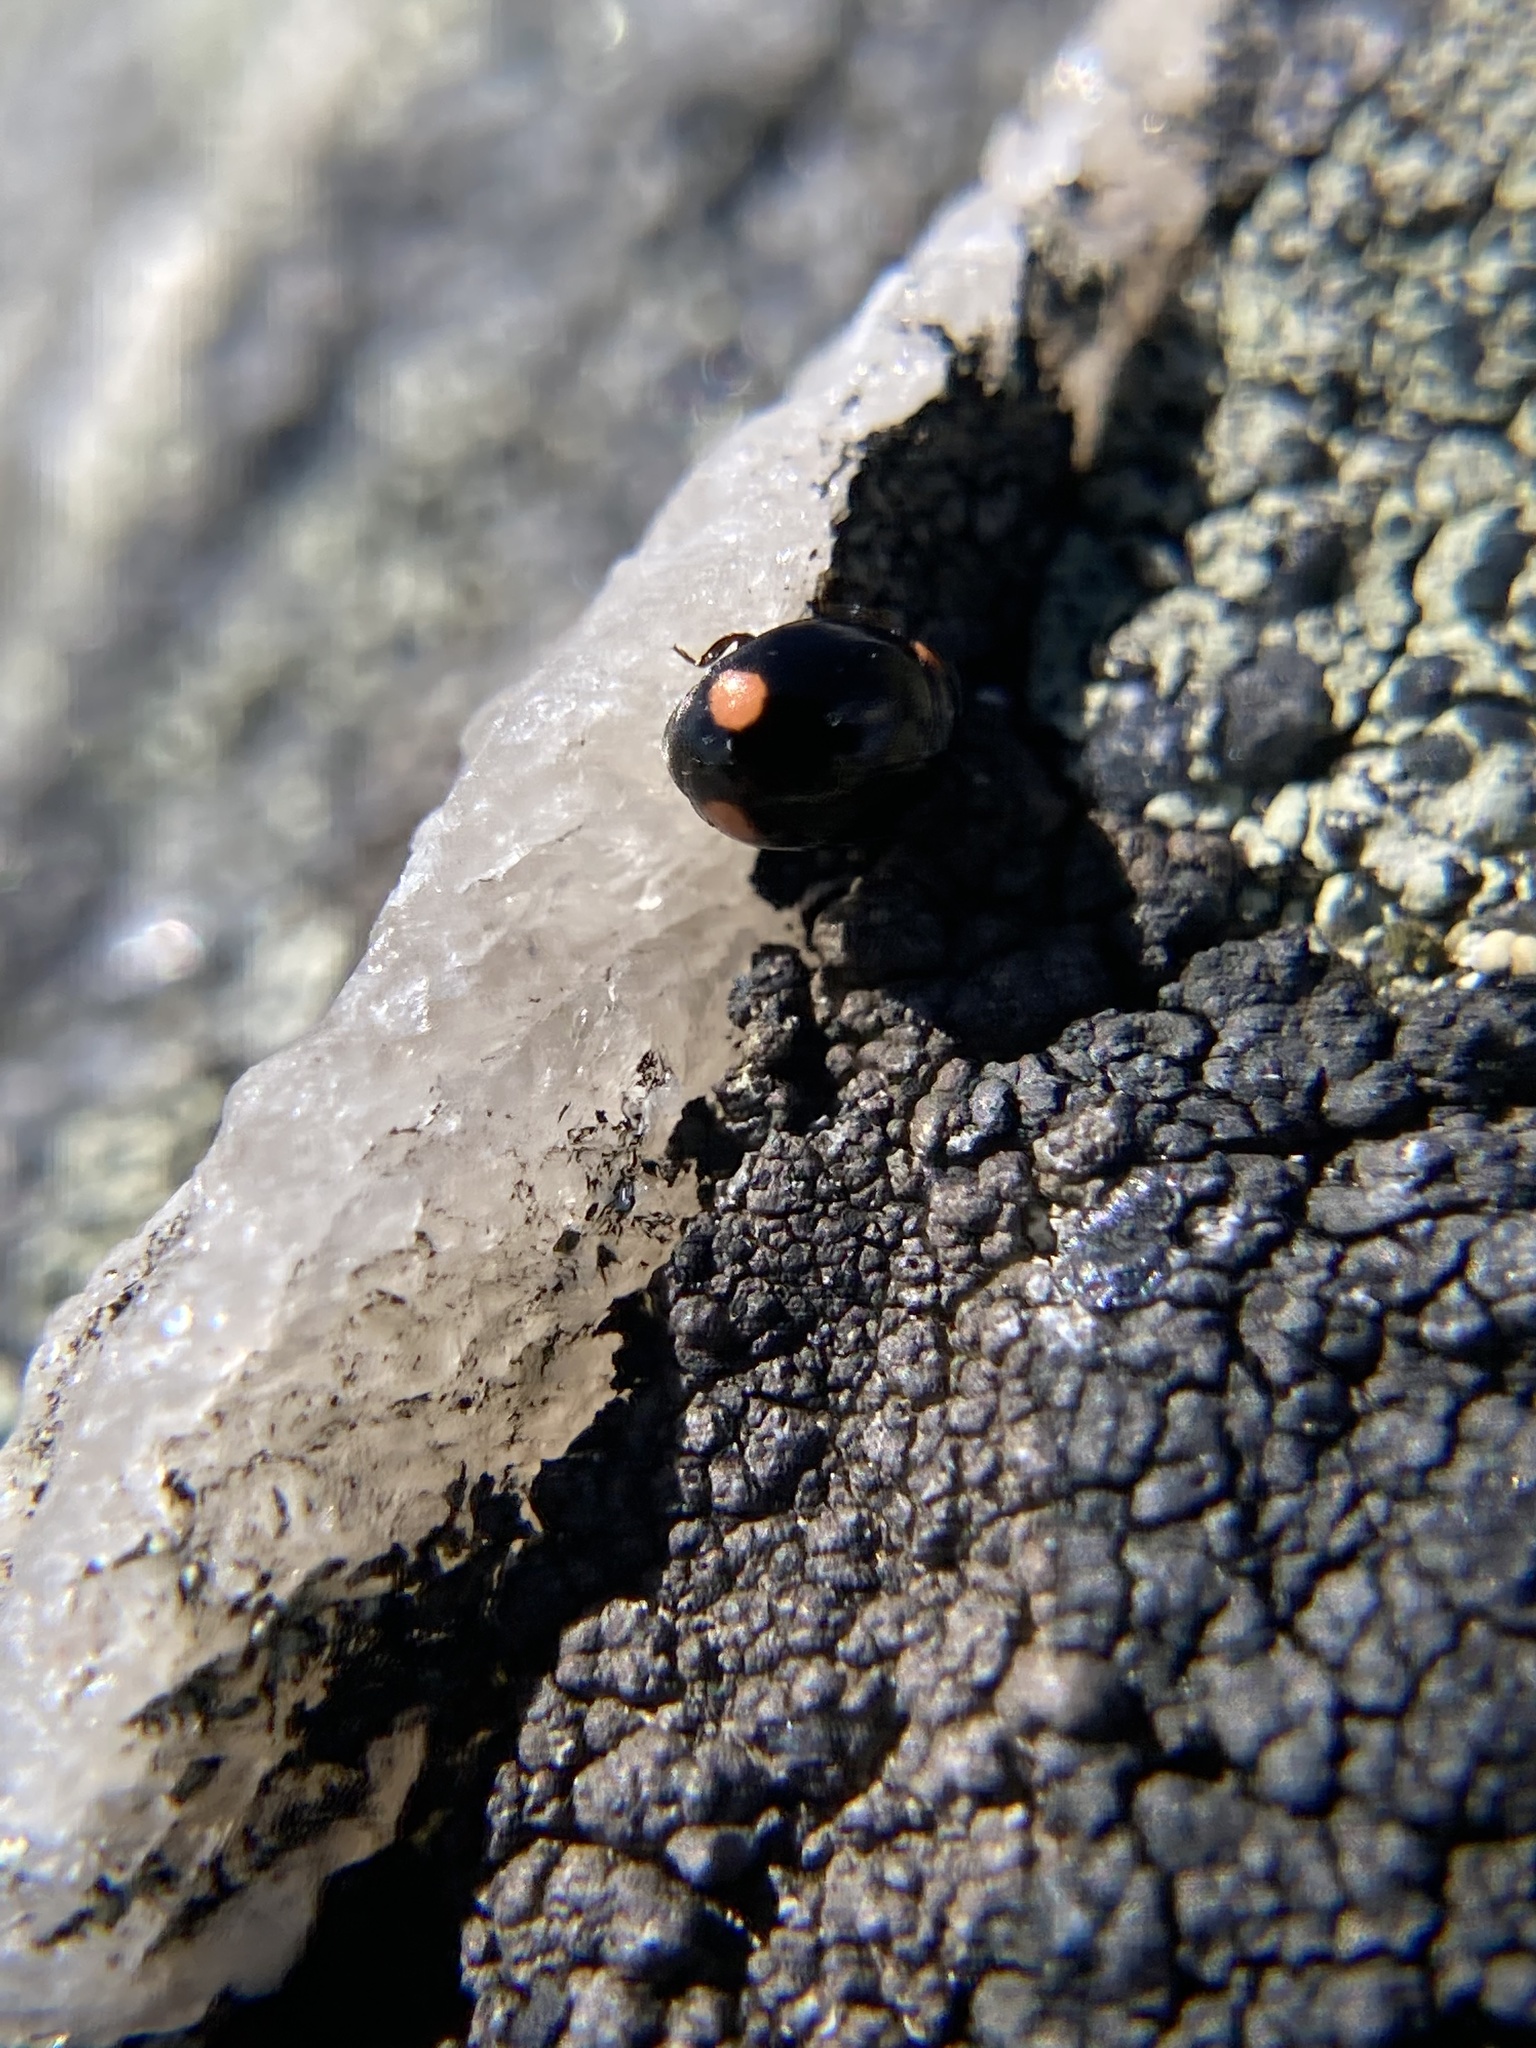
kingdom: Animalia
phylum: Arthropoda
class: Insecta
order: Coleoptera
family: Coccinellidae
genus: Hyperaspis
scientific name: Hyperaspis bigeminata
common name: Bigeminate sigil lady beetle
